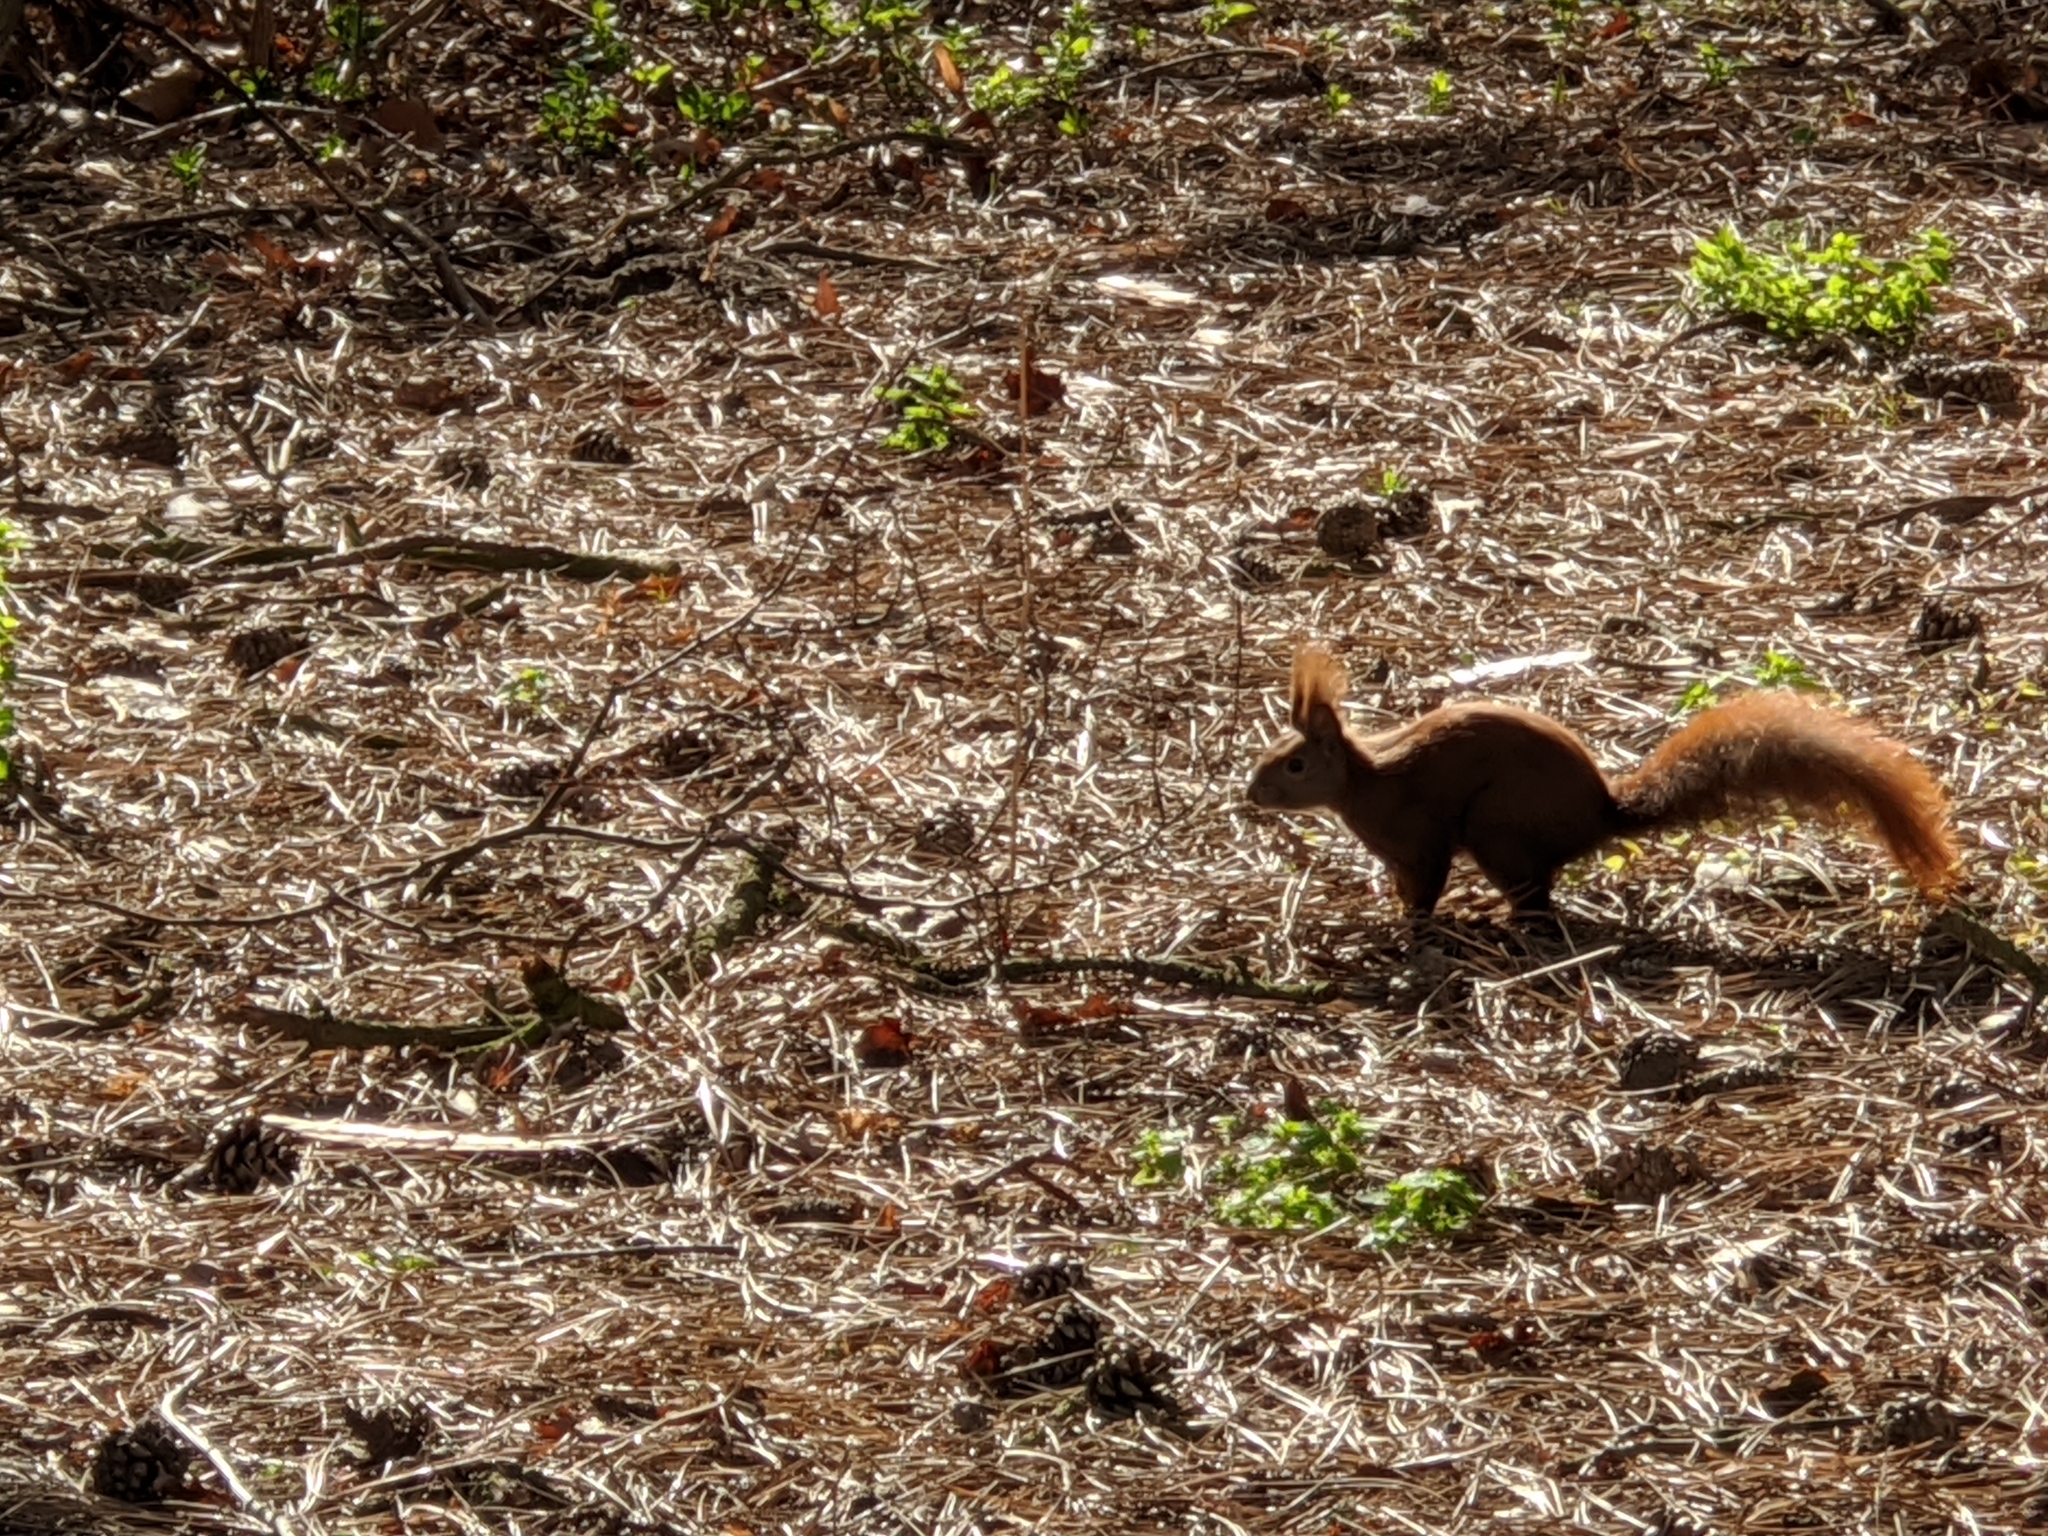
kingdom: Animalia
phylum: Chordata
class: Mammalia
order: Rodentia
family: Sciuridae
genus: Sciurus
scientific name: Sciurus vulgaris
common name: Eurasian red squirrel
